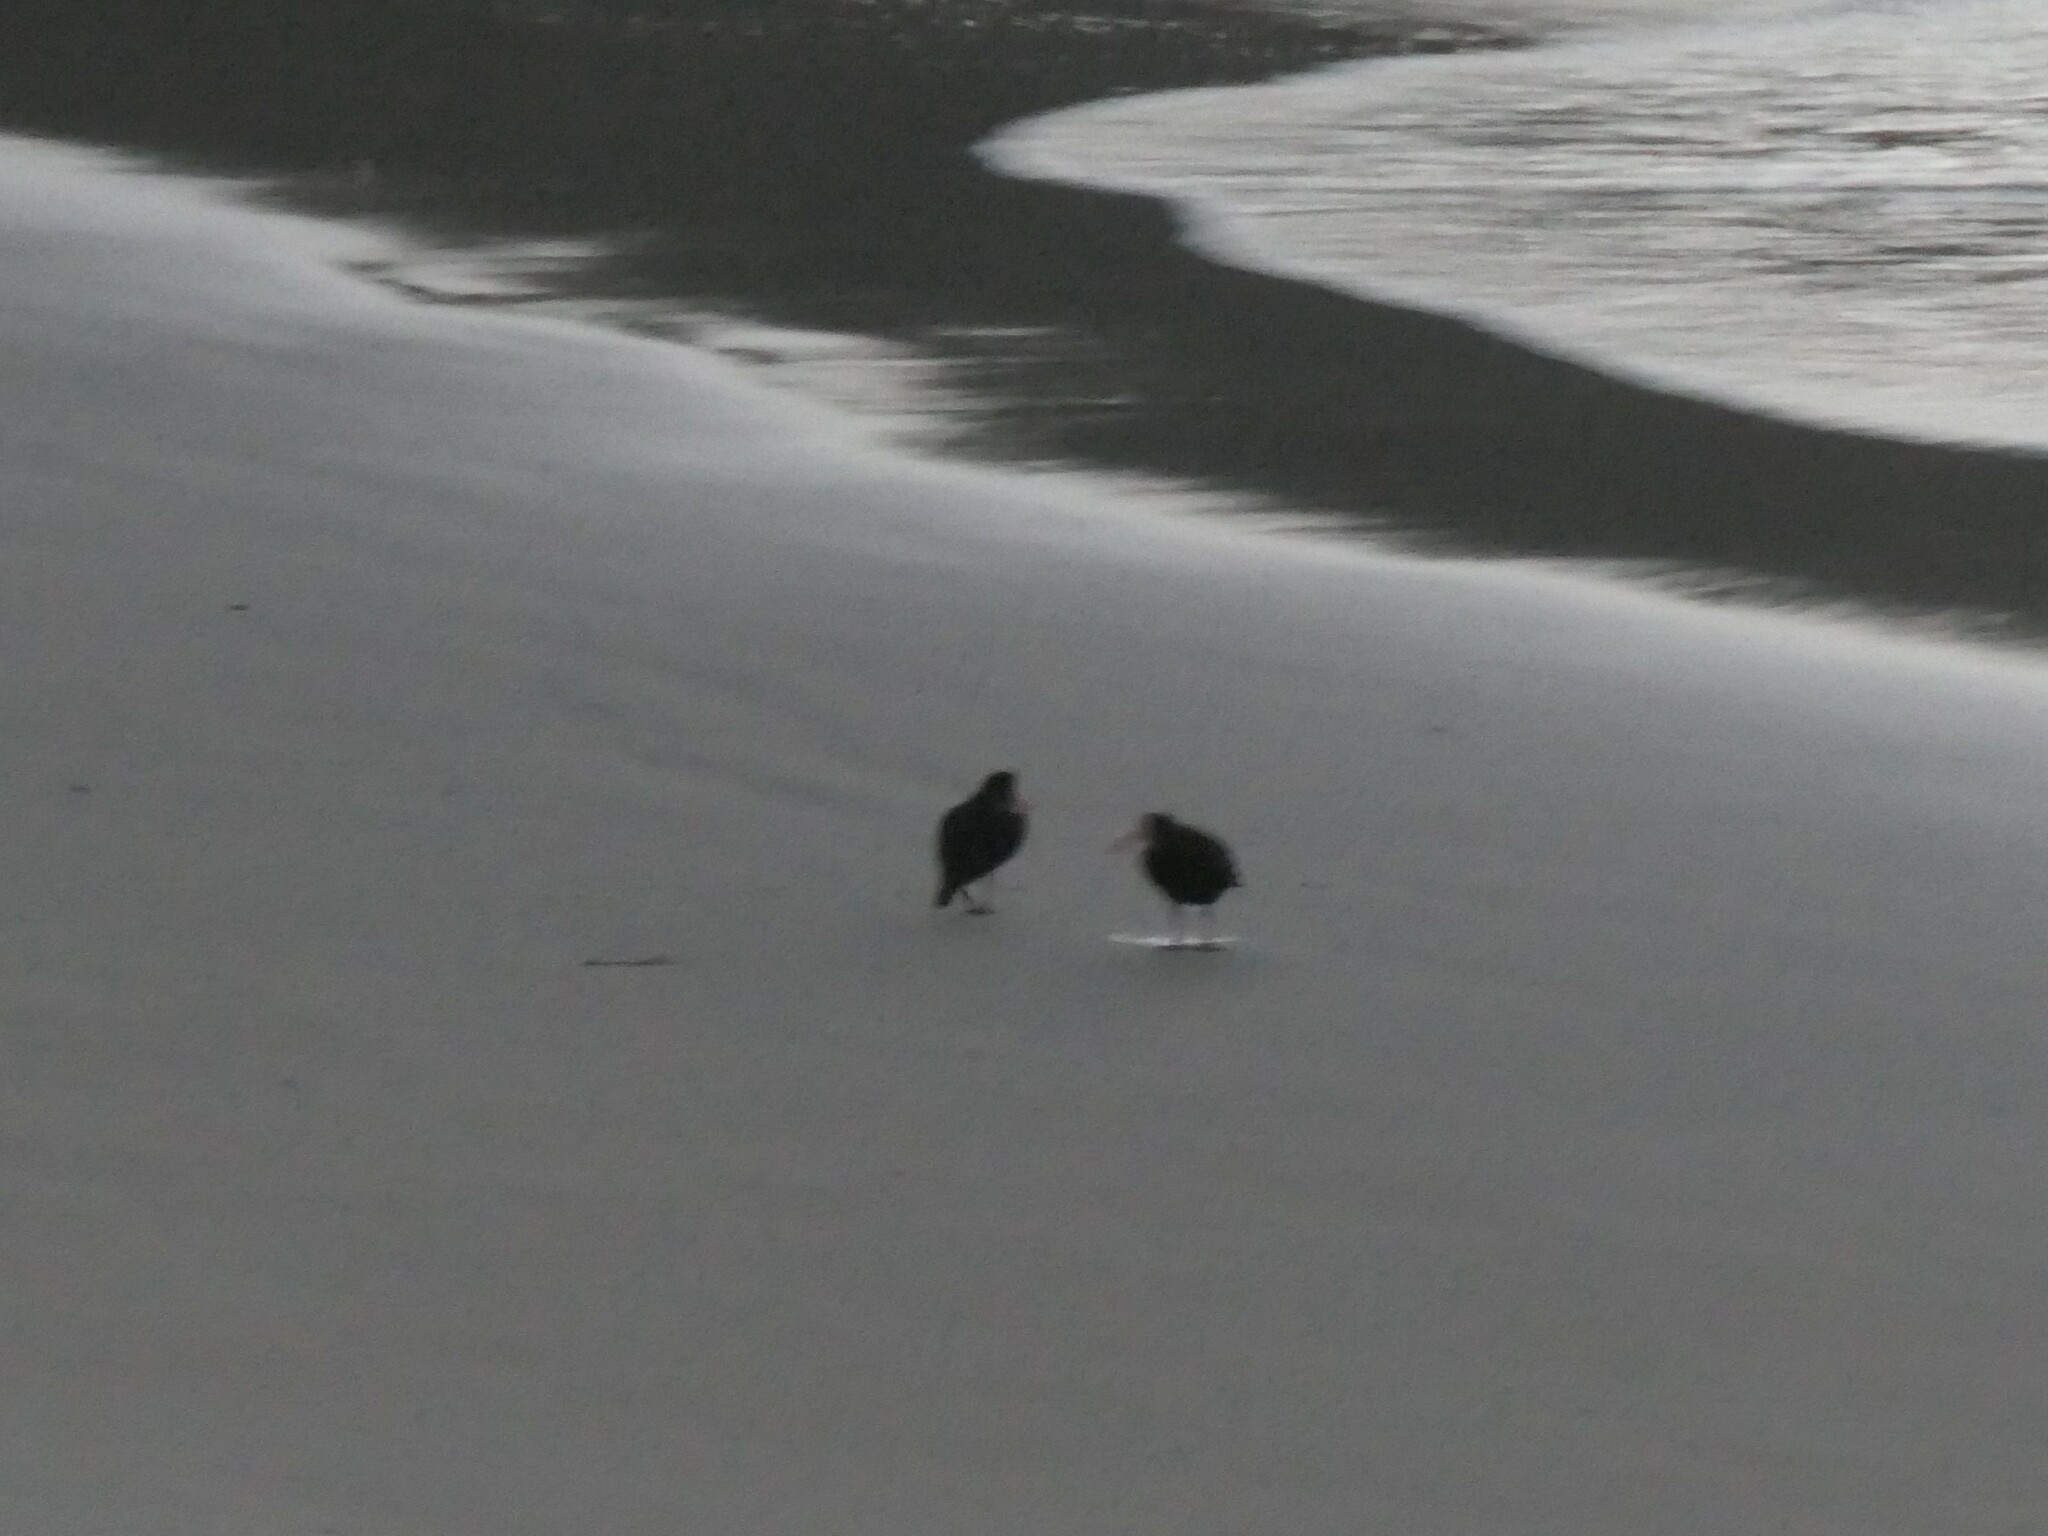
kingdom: Animalia
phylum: Chordata
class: Aves
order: Charadriiformes
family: Haematopodidae
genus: Haematopus
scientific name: Haematopus unicolor
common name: Variable oystercatcher
